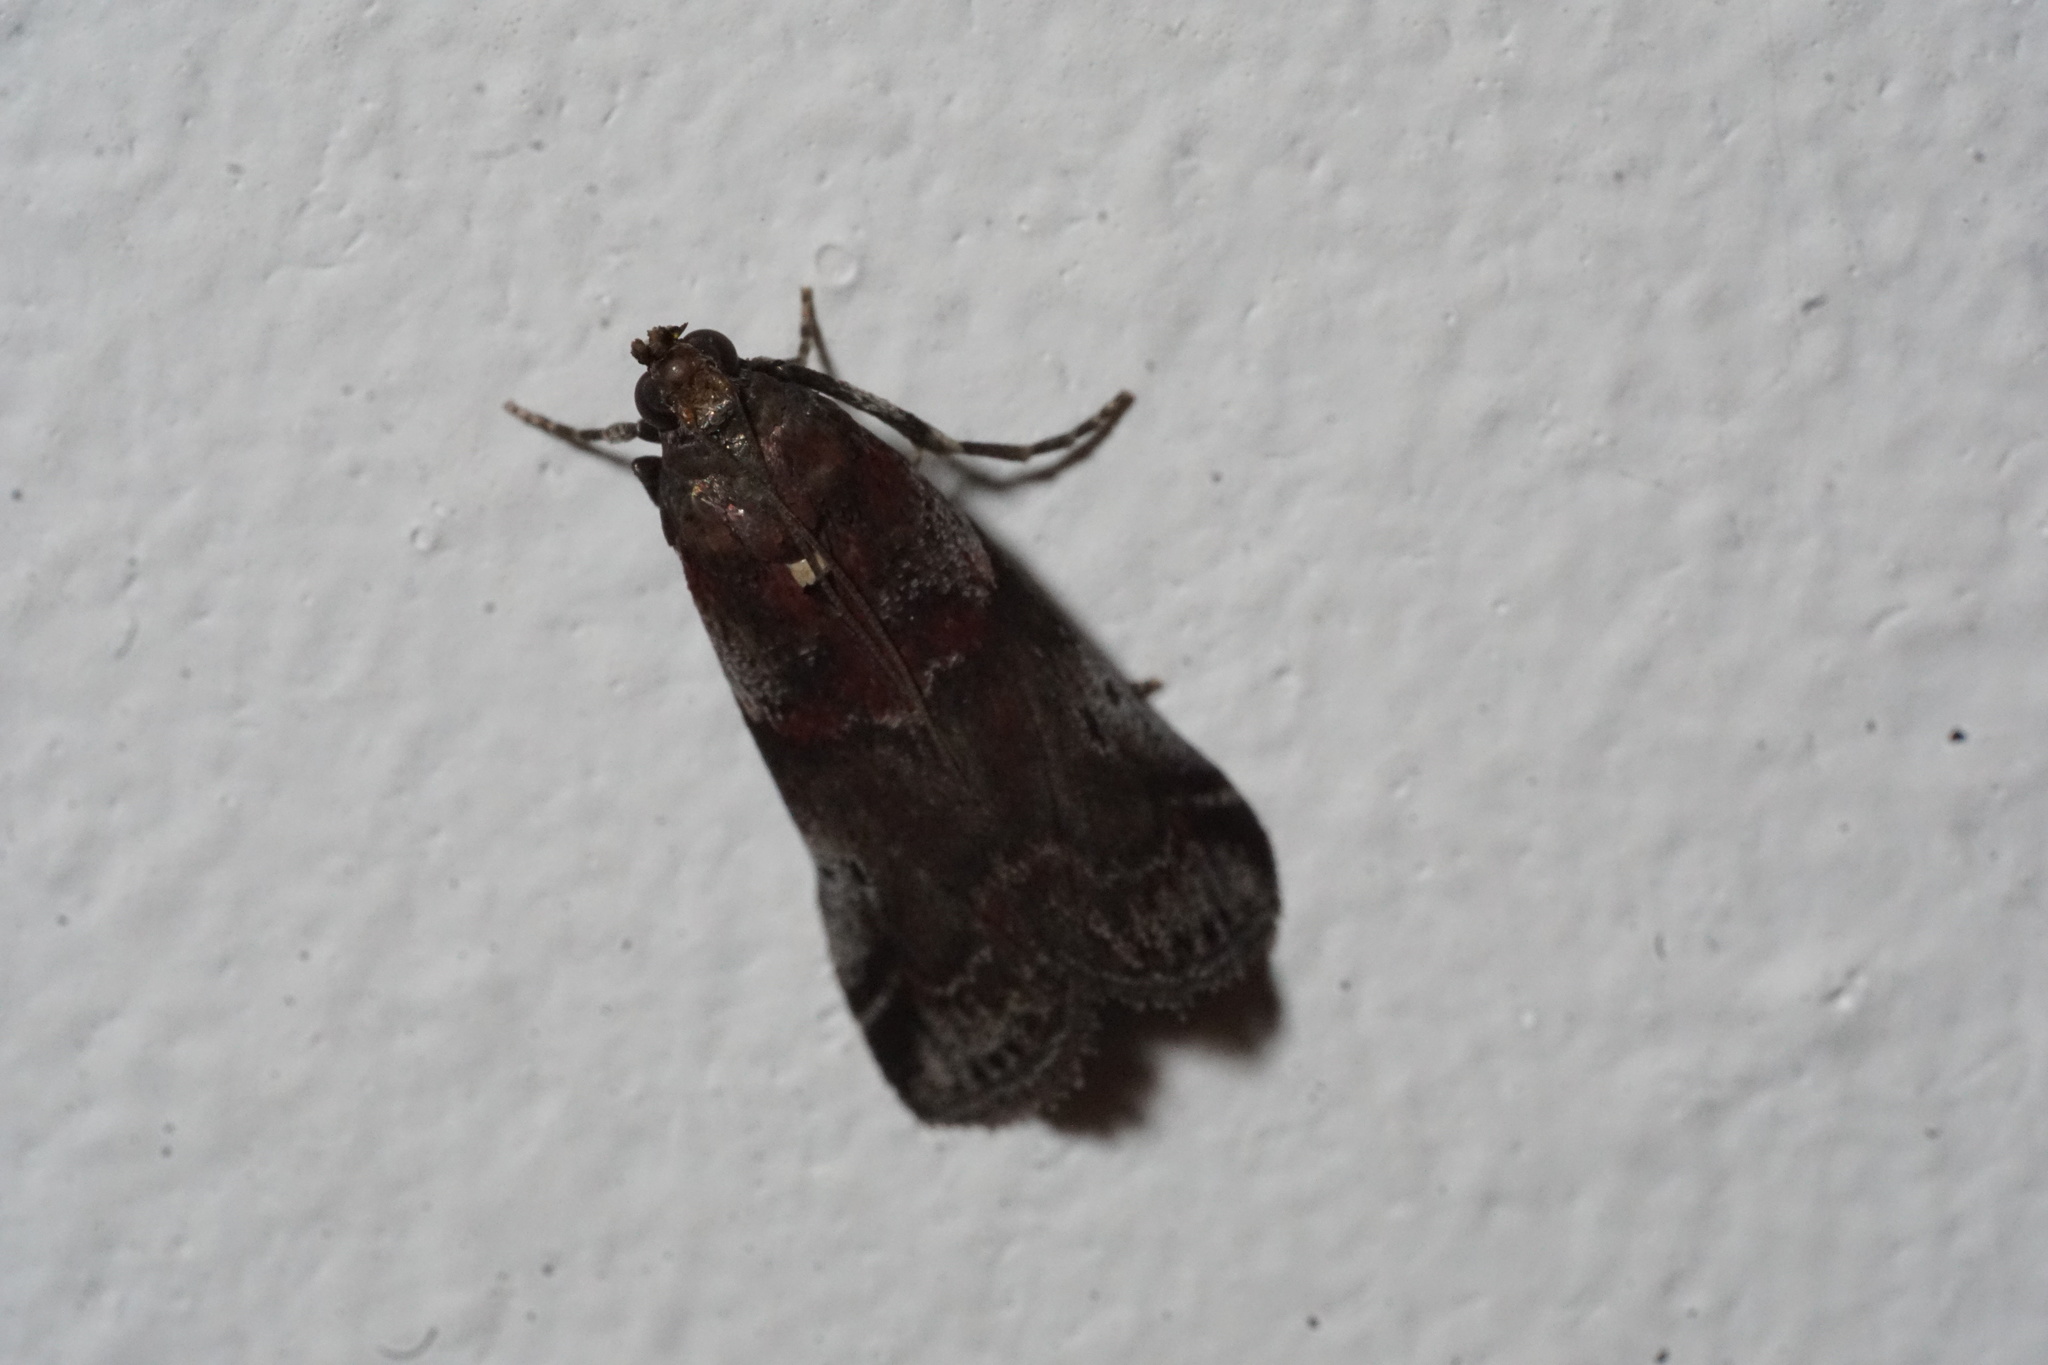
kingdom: Animalia
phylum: Arthropoda
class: Insecta
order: Lepidoptera
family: Pyralidae
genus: Acrobasis
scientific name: Acrobasis suavella
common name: Pyralid moth
